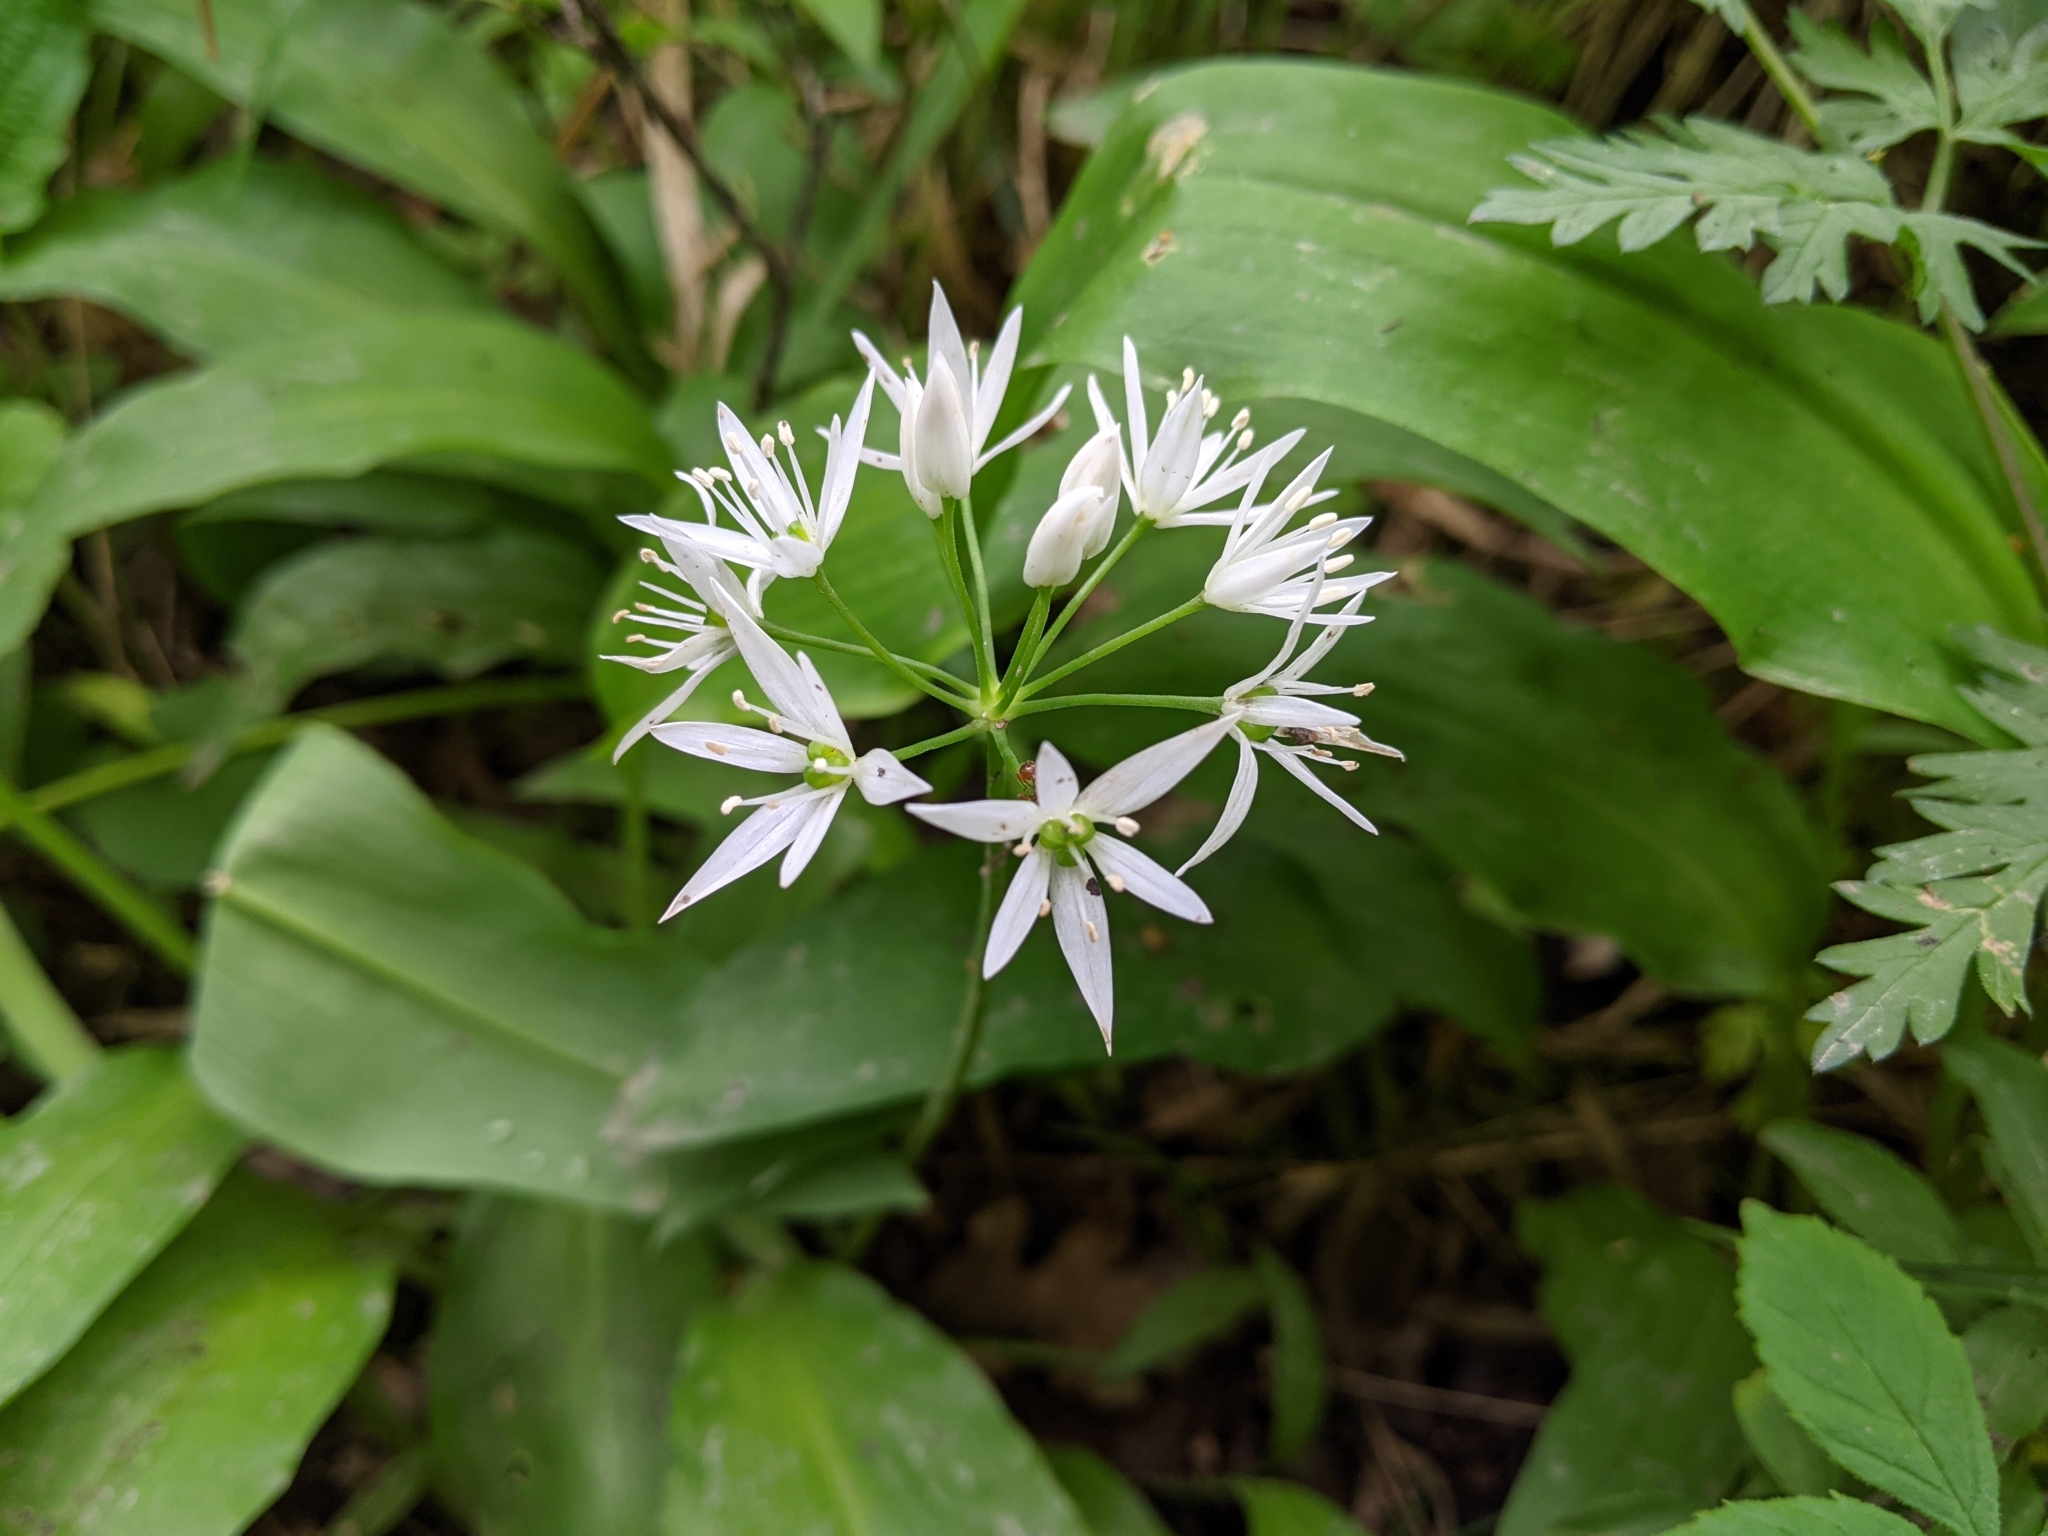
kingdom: Plantae
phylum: Tracheophyta
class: Liliopsida
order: Asparagales
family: Amaryllidaceae
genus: Allium
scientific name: Allium ursinum
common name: Ramsons
